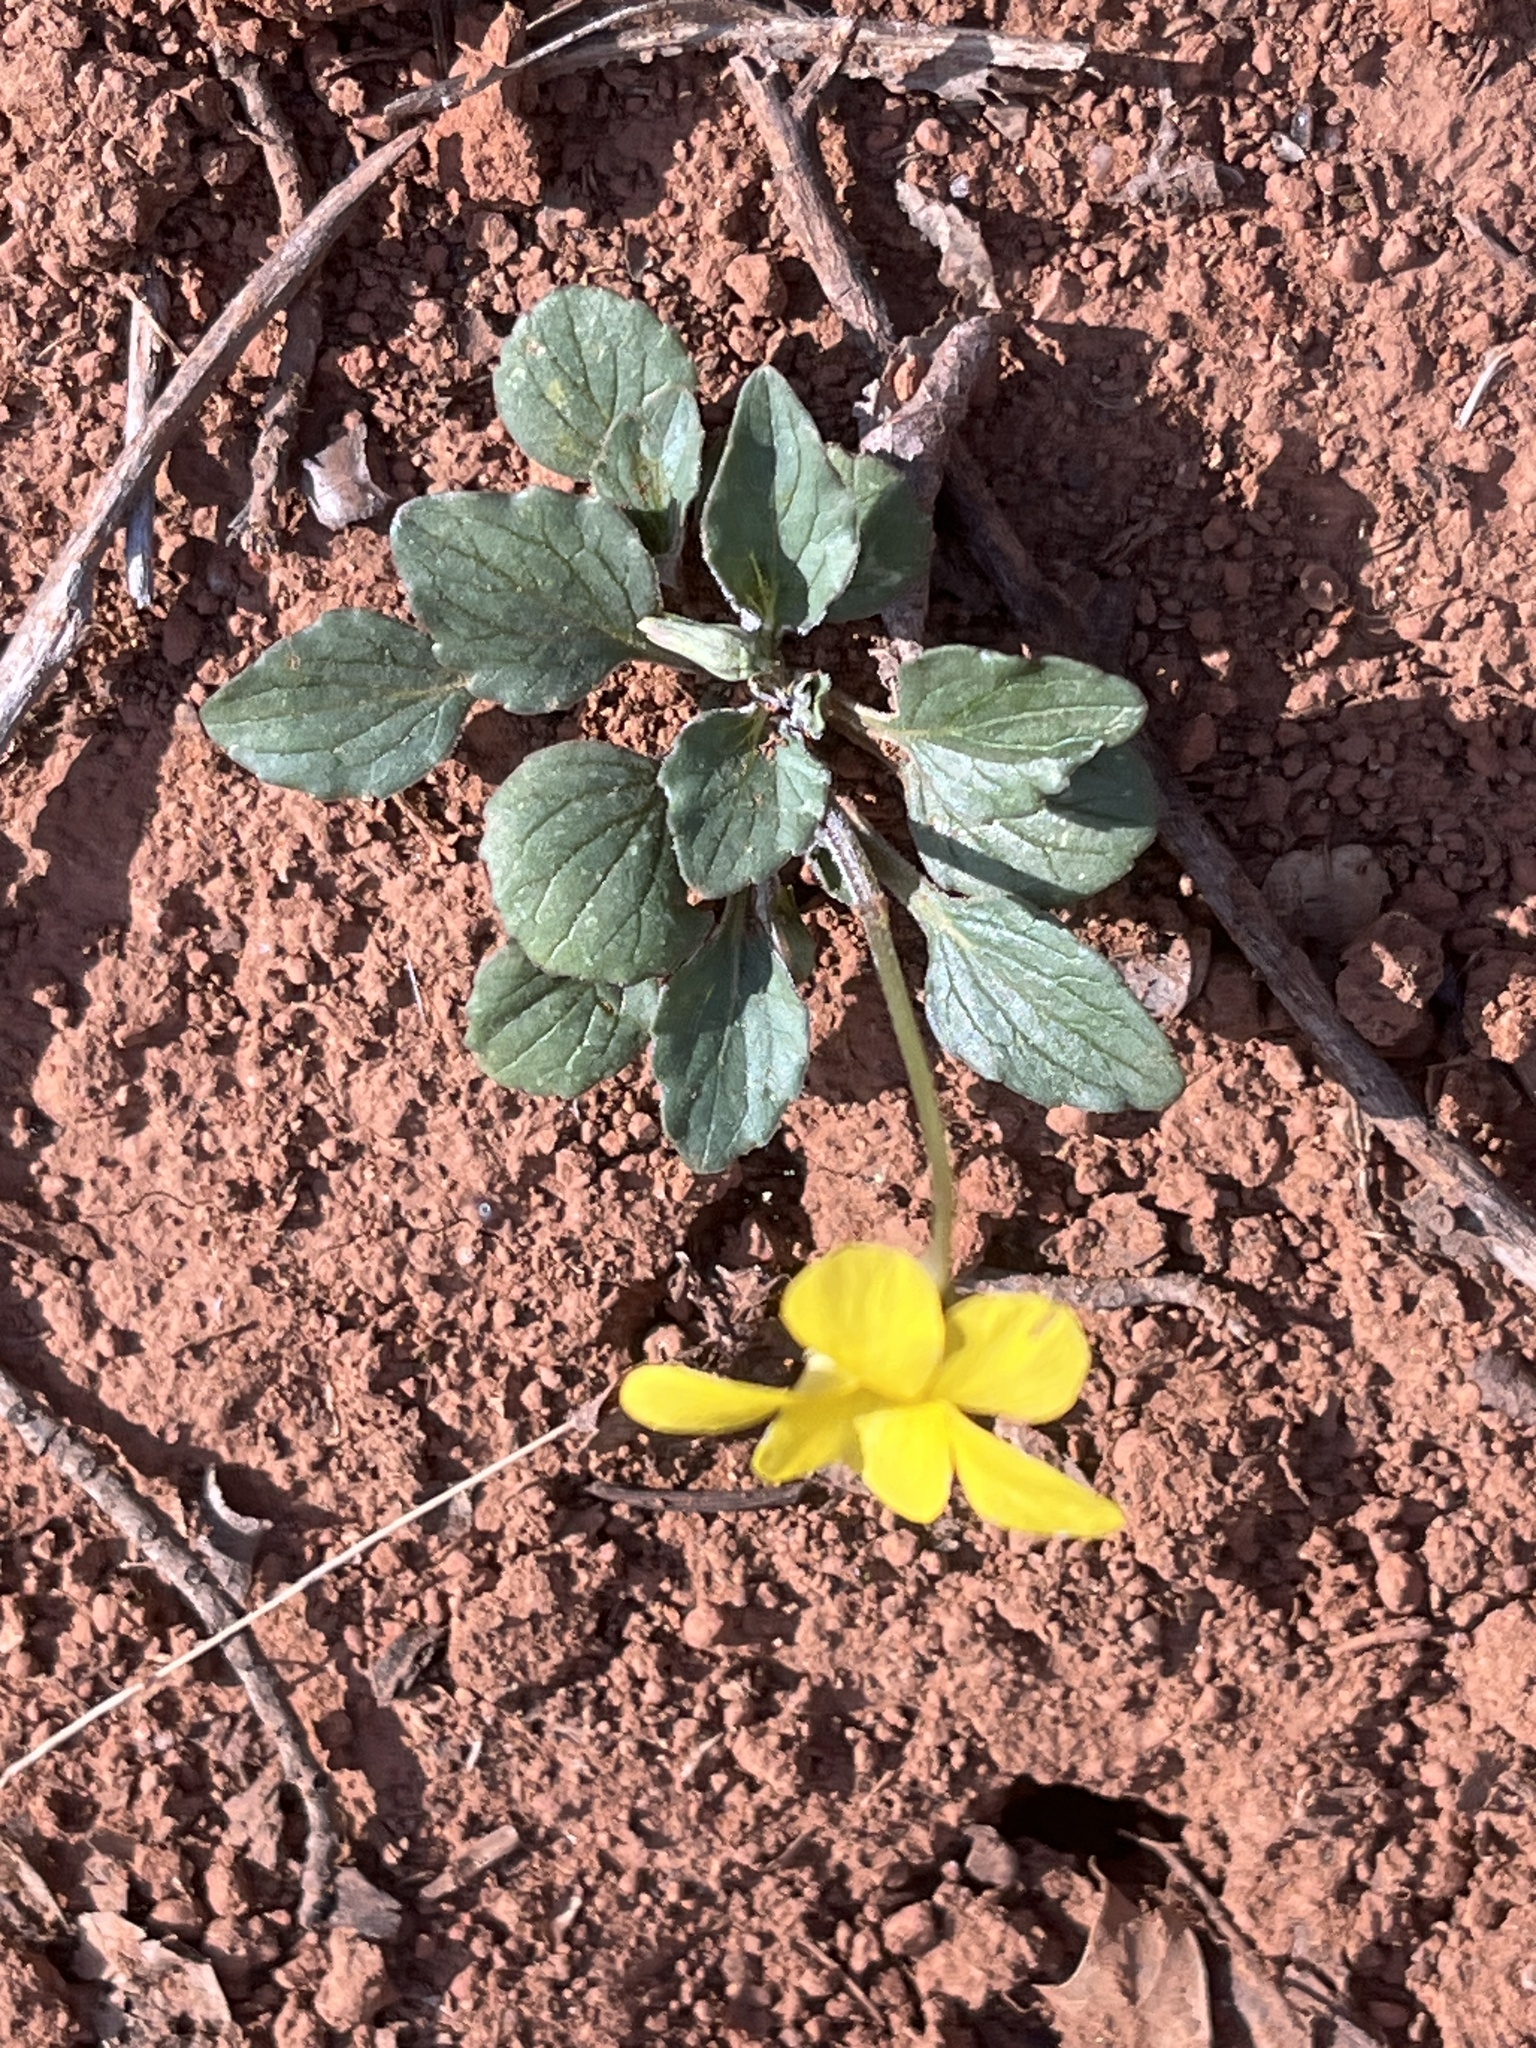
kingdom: Plantae
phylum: Tracheophyta
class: Magnoliopsida
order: Malpighiales
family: Violaceae
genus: Viola
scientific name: Viola purpurea
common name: Pine violet
